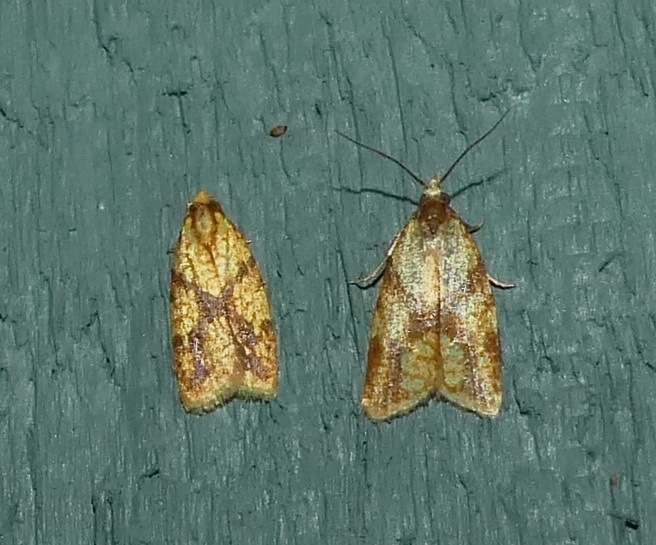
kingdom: Animalia
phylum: Arthropoda
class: Insecta
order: Lepidoptera
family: Tortricidae
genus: Sparganothis
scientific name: Sparganothis sulfureana
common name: Sparganothis fruitworm moth
